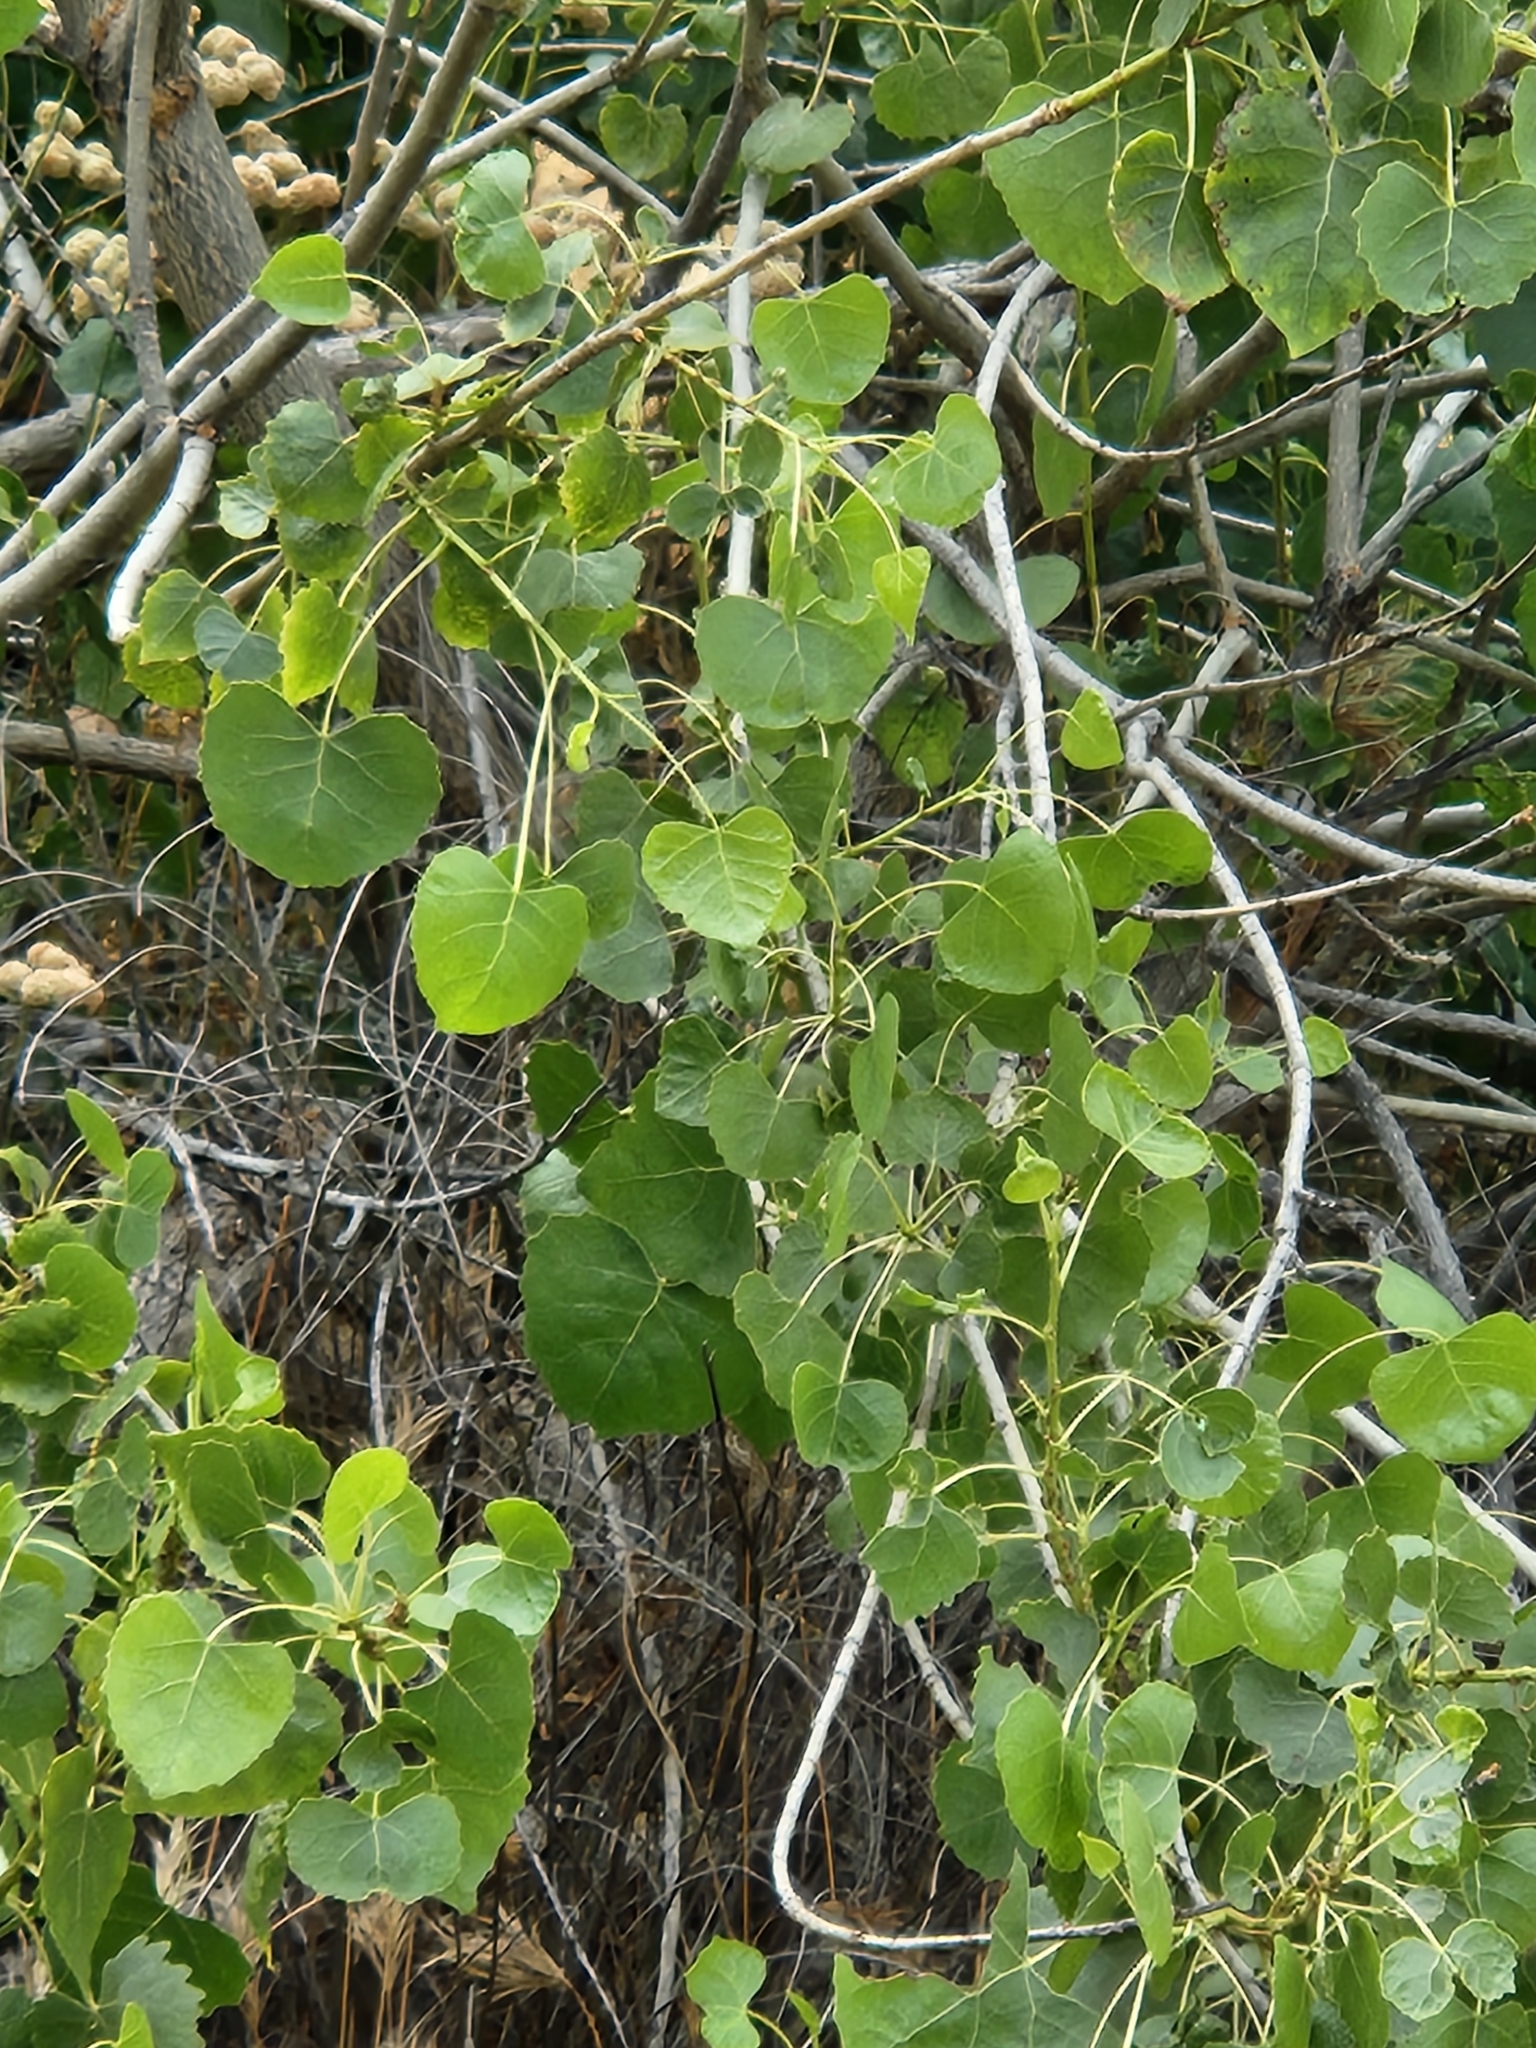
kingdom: Plantae
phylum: Tracheophyta
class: Magnoliopsida
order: Malpighiales
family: Salicaceae
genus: Populus
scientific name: Populus fremontii
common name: Fremont's cottonwood
